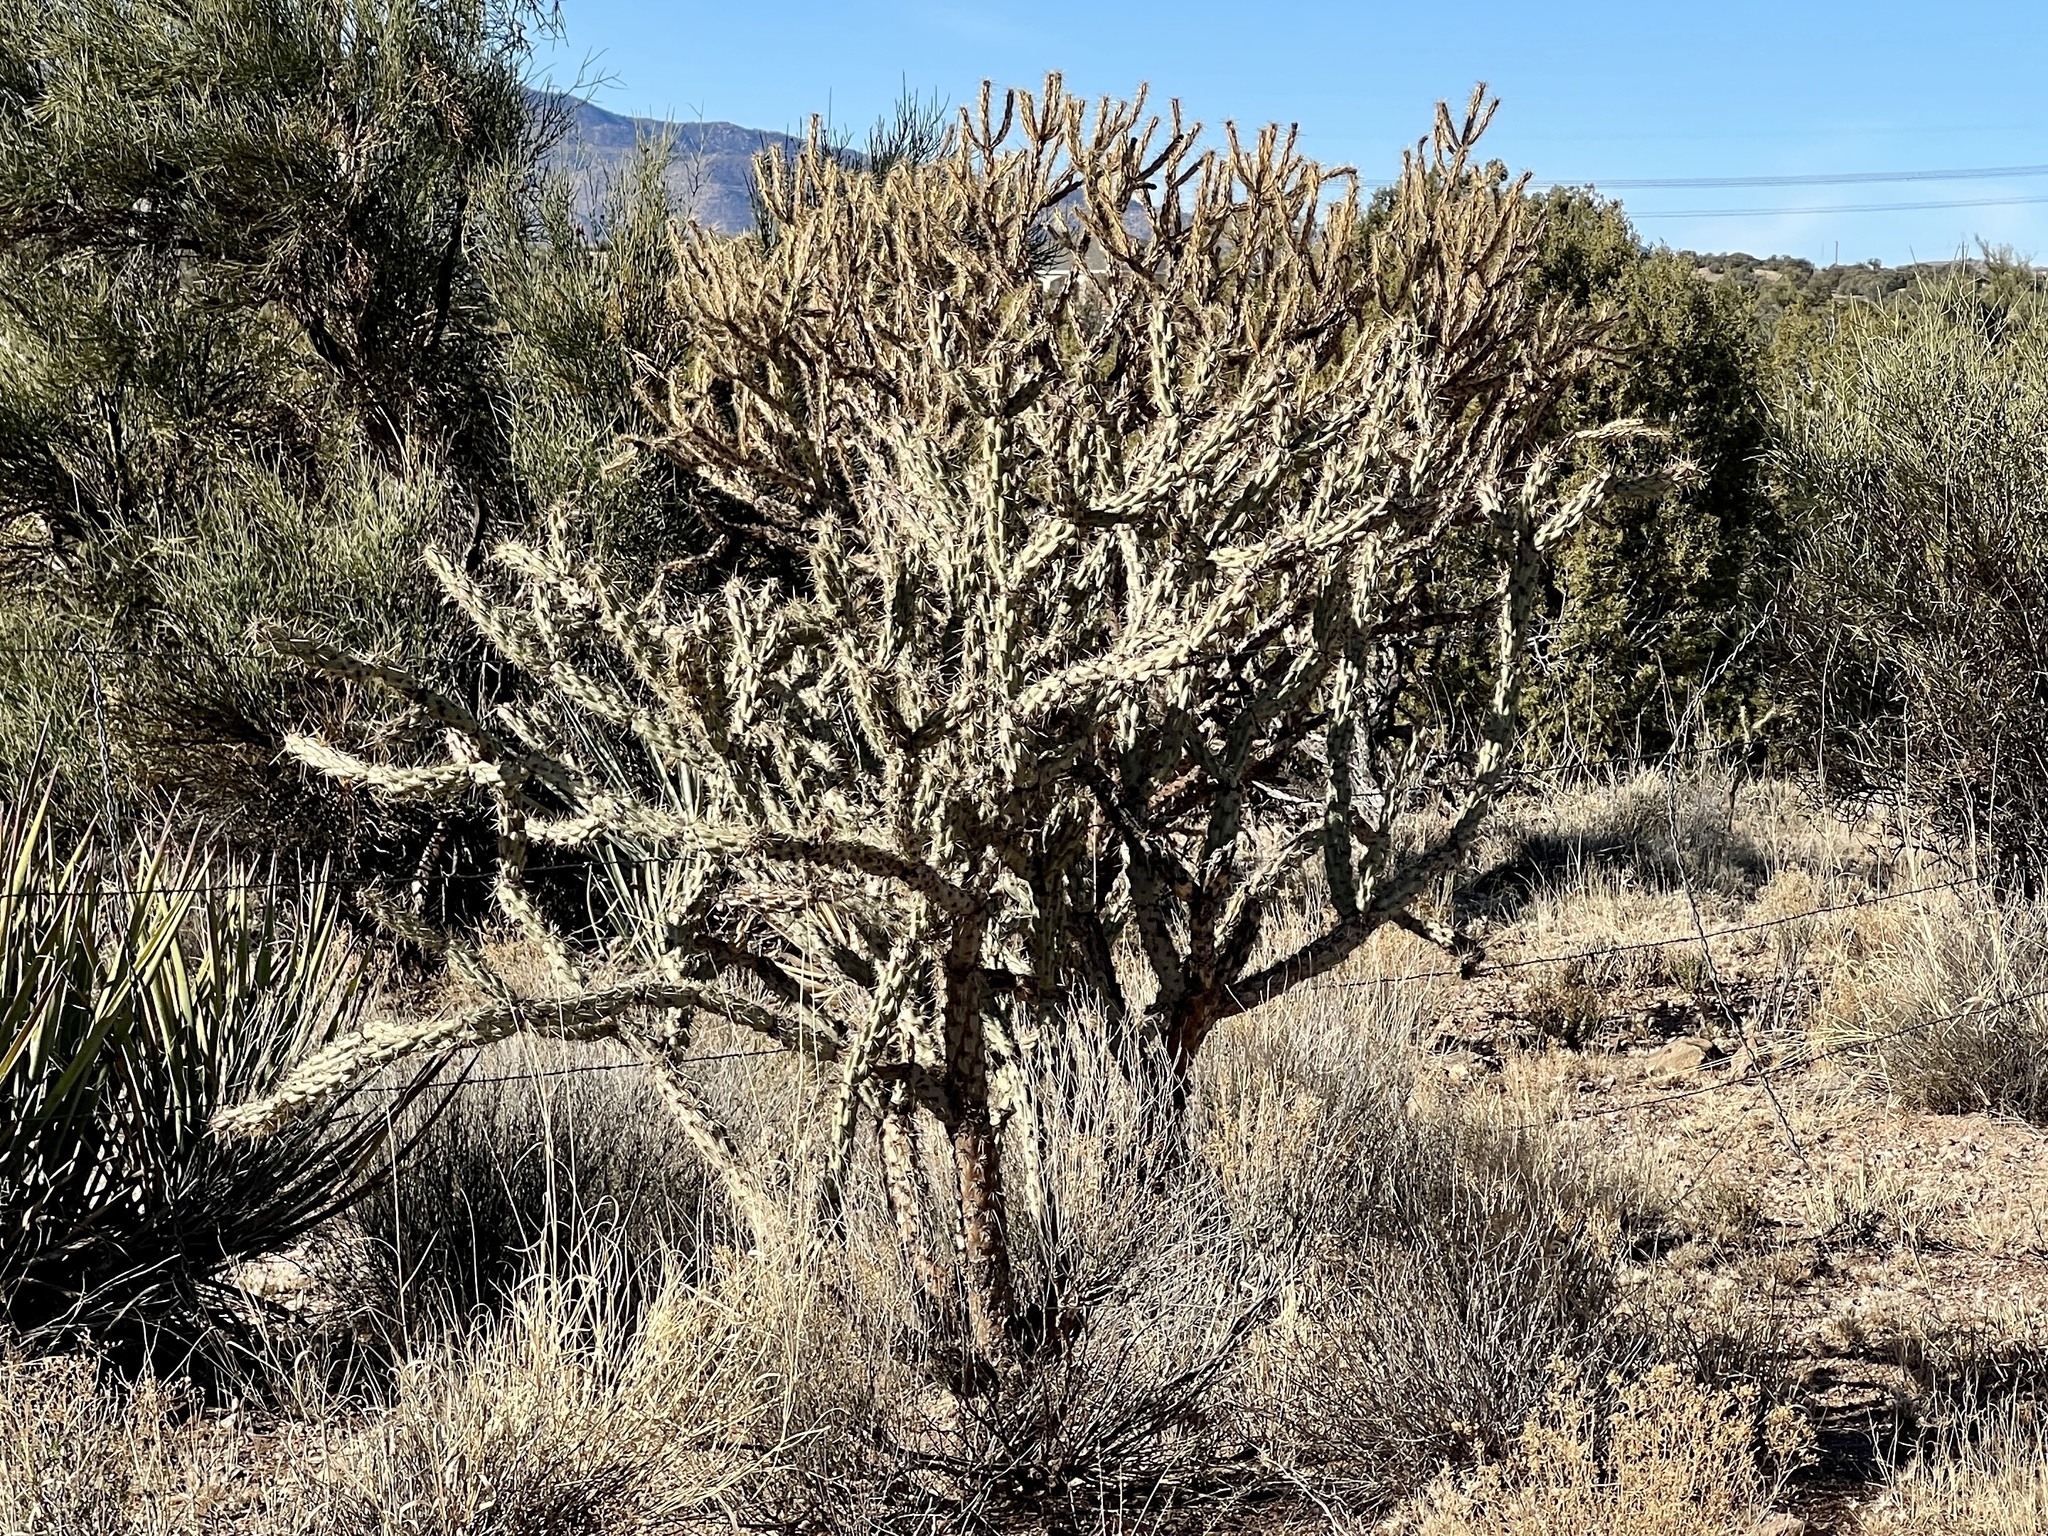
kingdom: Plantae
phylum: Tracheophyta
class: Magnoliopsida
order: Caryophyllales
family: Cactaceae
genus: Cylindropuntia
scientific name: Cylindropuntia acanthocarpa
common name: Buckhorn cholla
